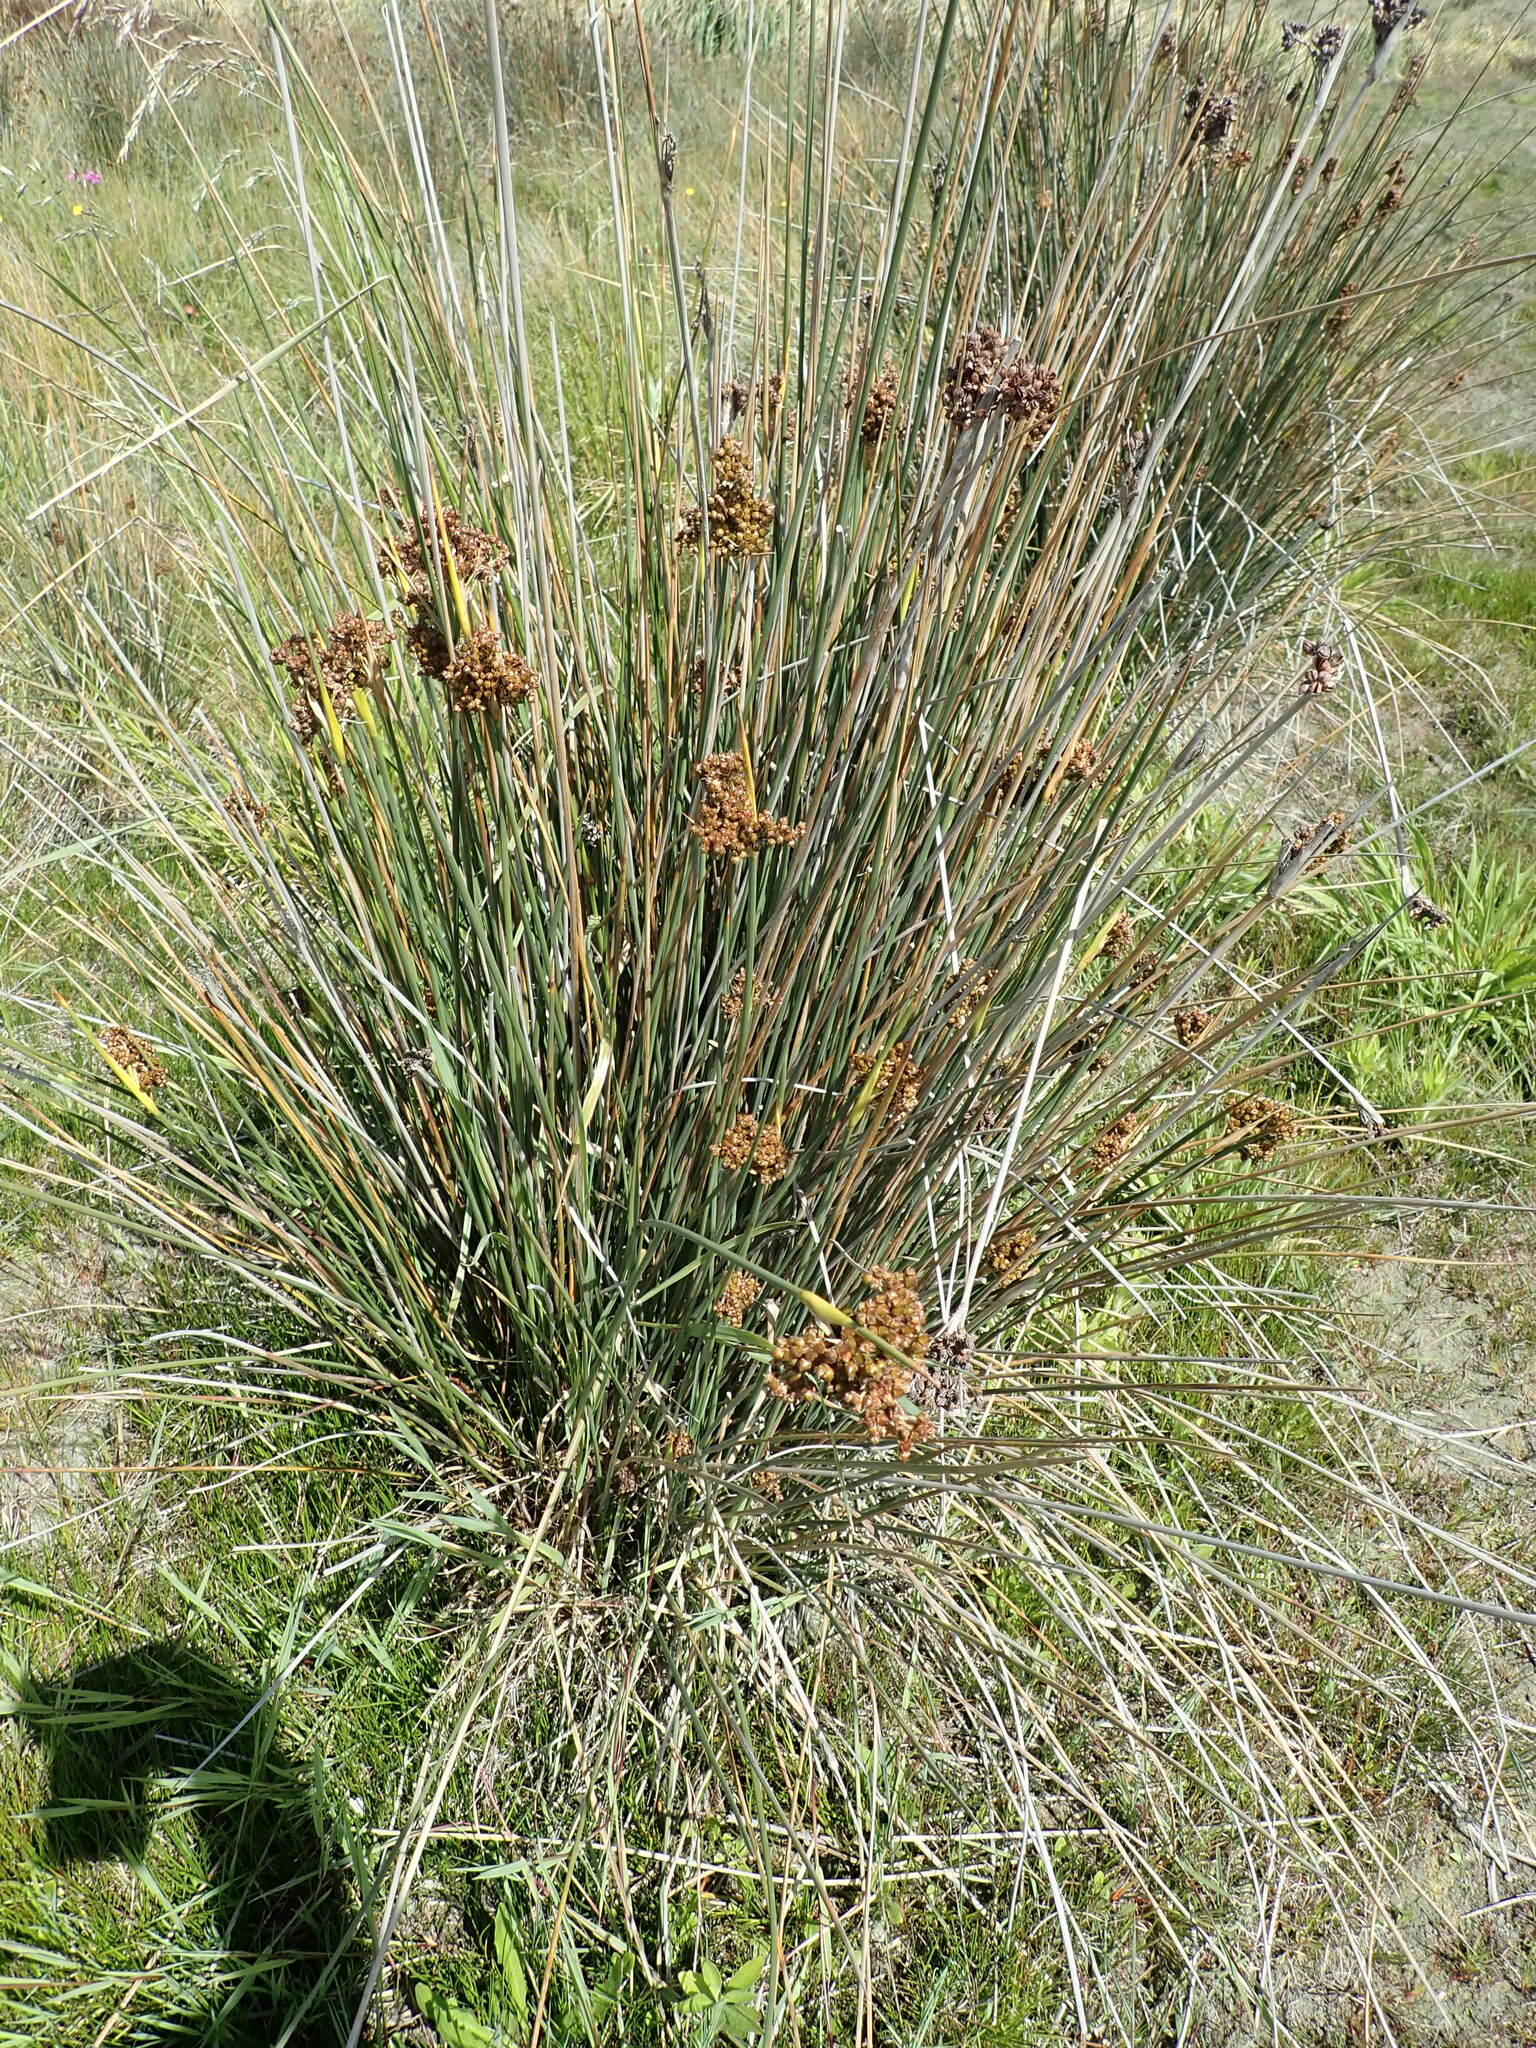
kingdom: Plantae
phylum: Tracheophyta
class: Liliopsida
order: Poales
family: Juncaceae
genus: Juncus
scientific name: Juncus acutus
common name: Sharp rush
